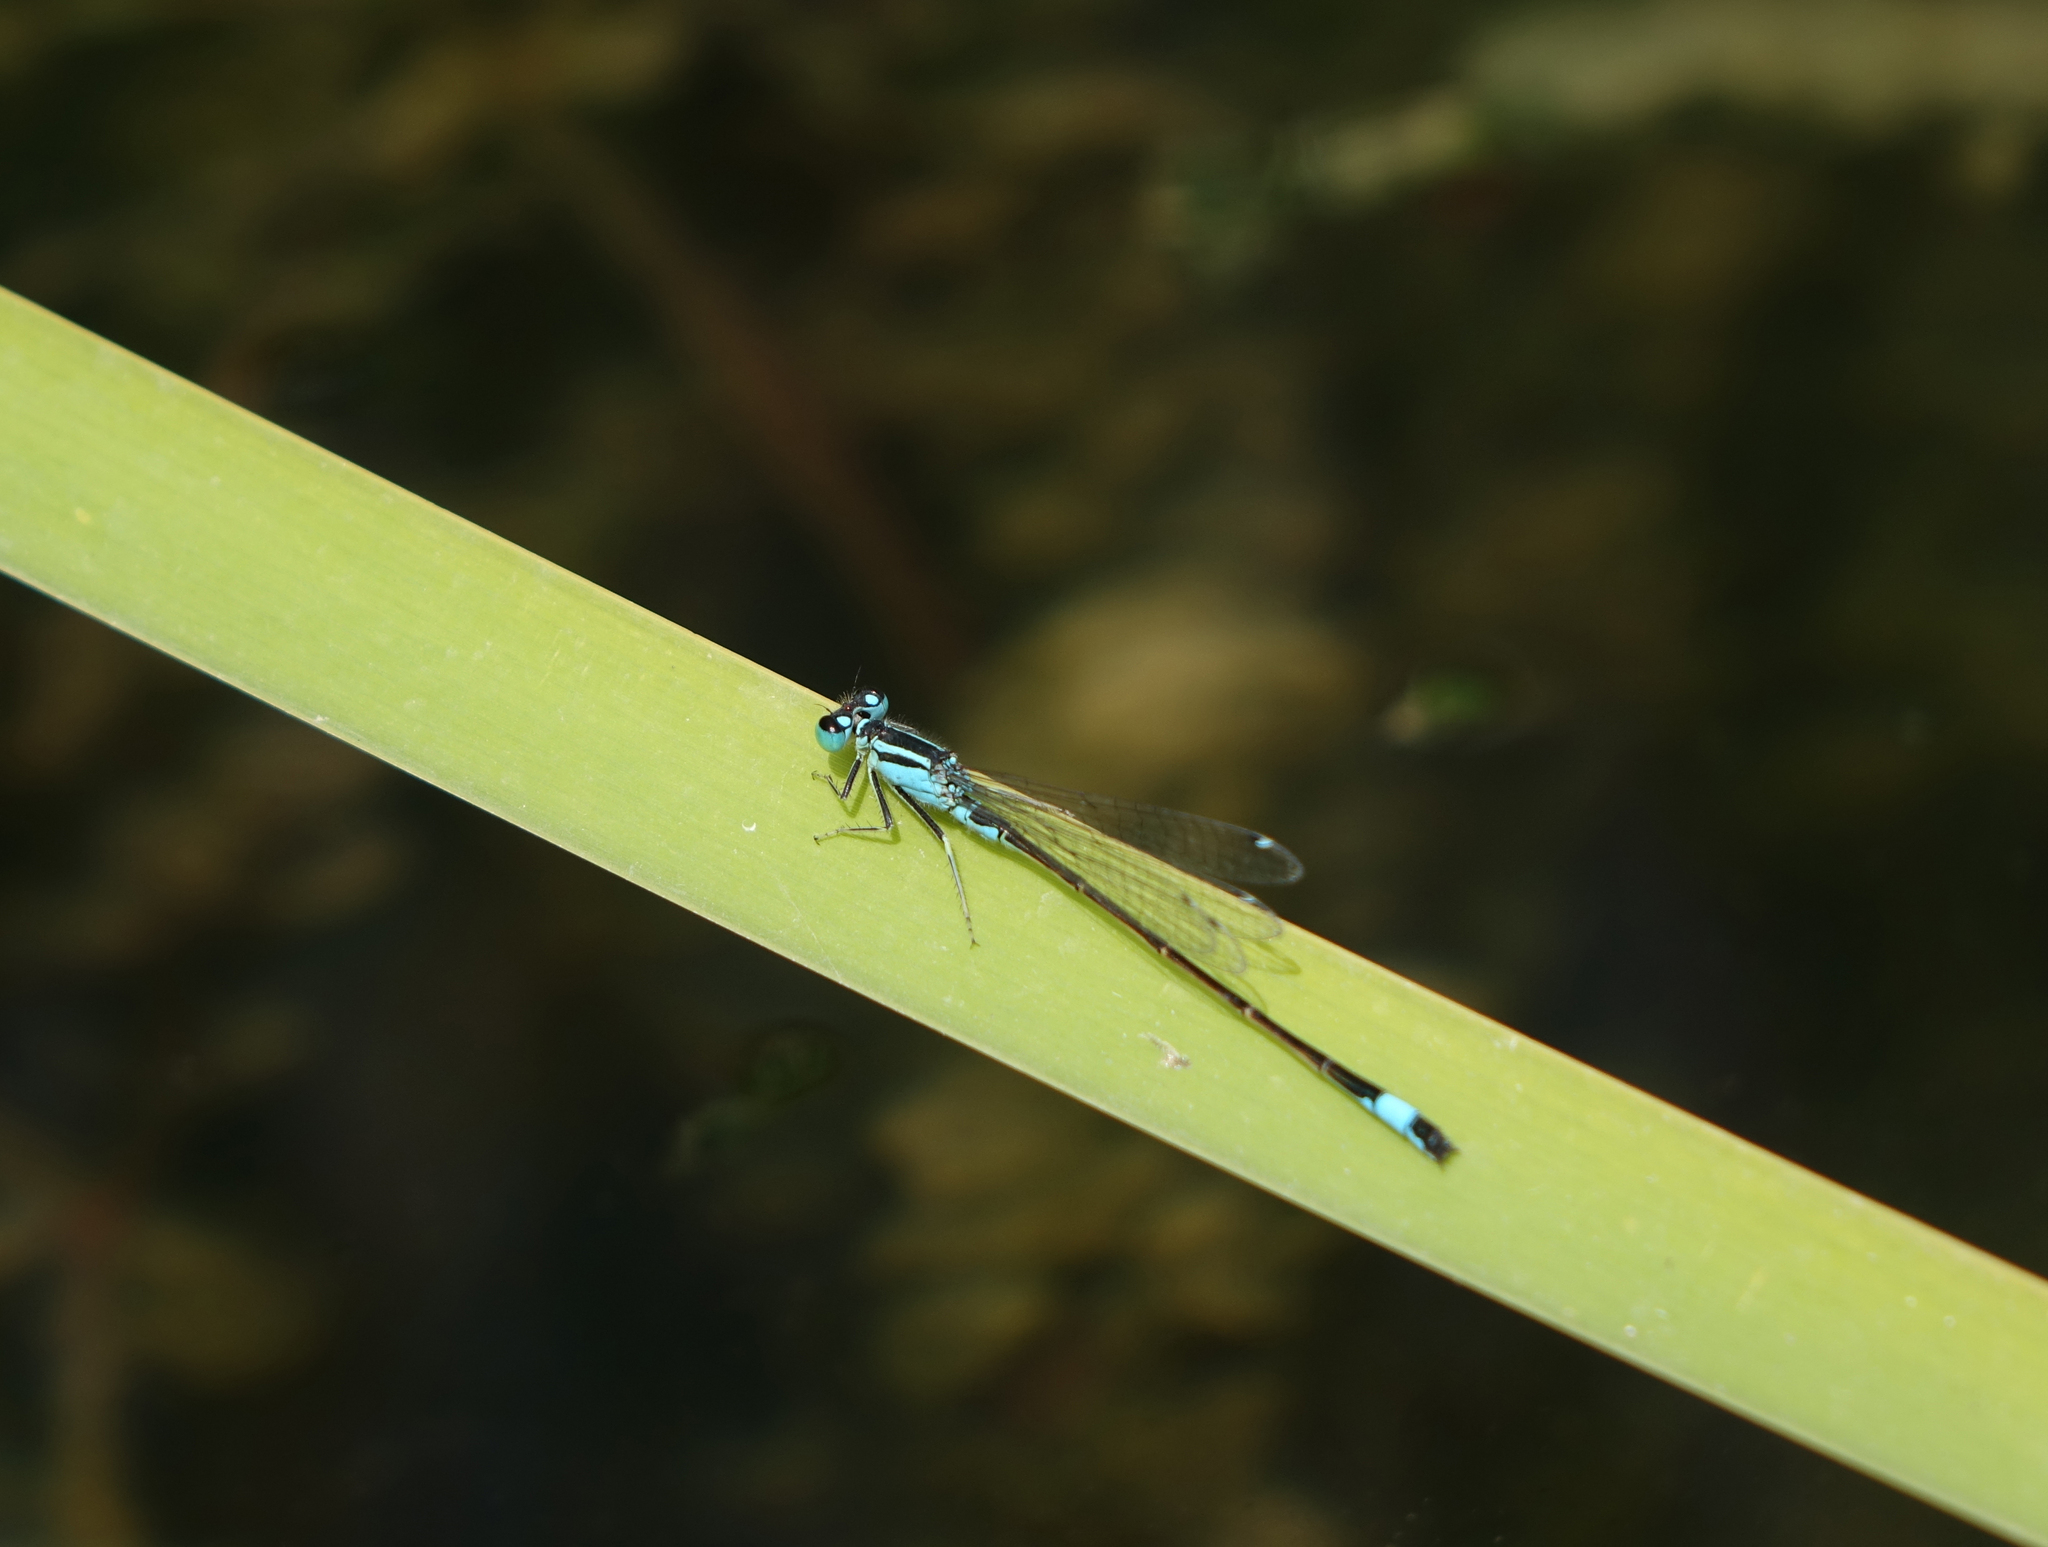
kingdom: Animalia
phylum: Arthropoda
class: Insecta
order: Odonata
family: Coenagrionidae
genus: Ischnura
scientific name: Ischnura elegans
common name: Blue-tailed damselfly
